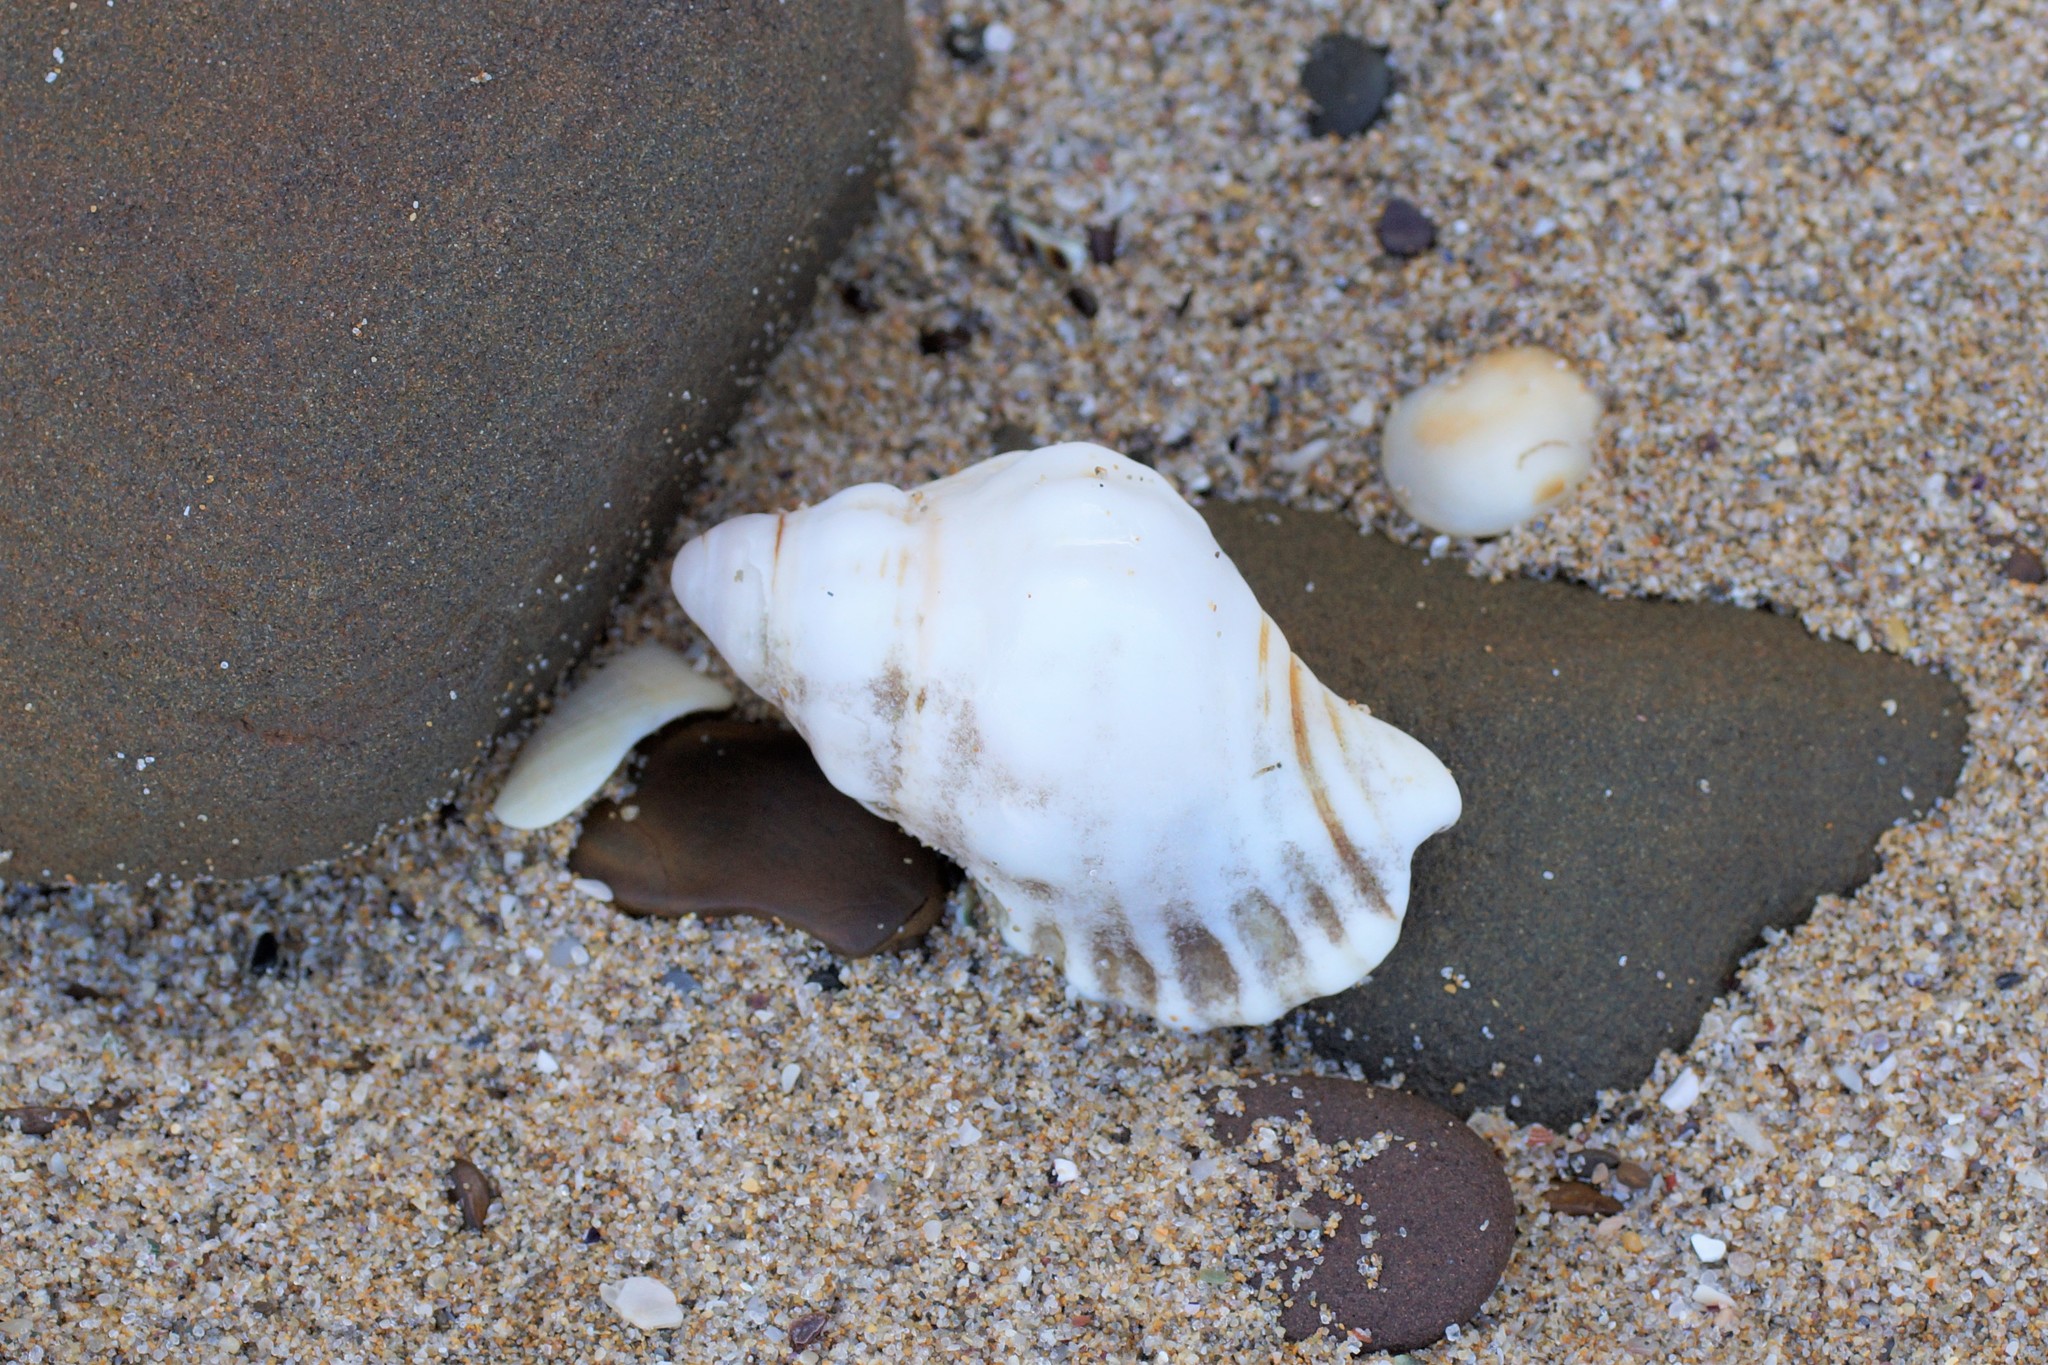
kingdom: Animalia
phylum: Mollusca
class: Gastropoda
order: Littorinimorpha
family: Cymatiidae
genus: Cabestana
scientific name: Cabestana spengleri
